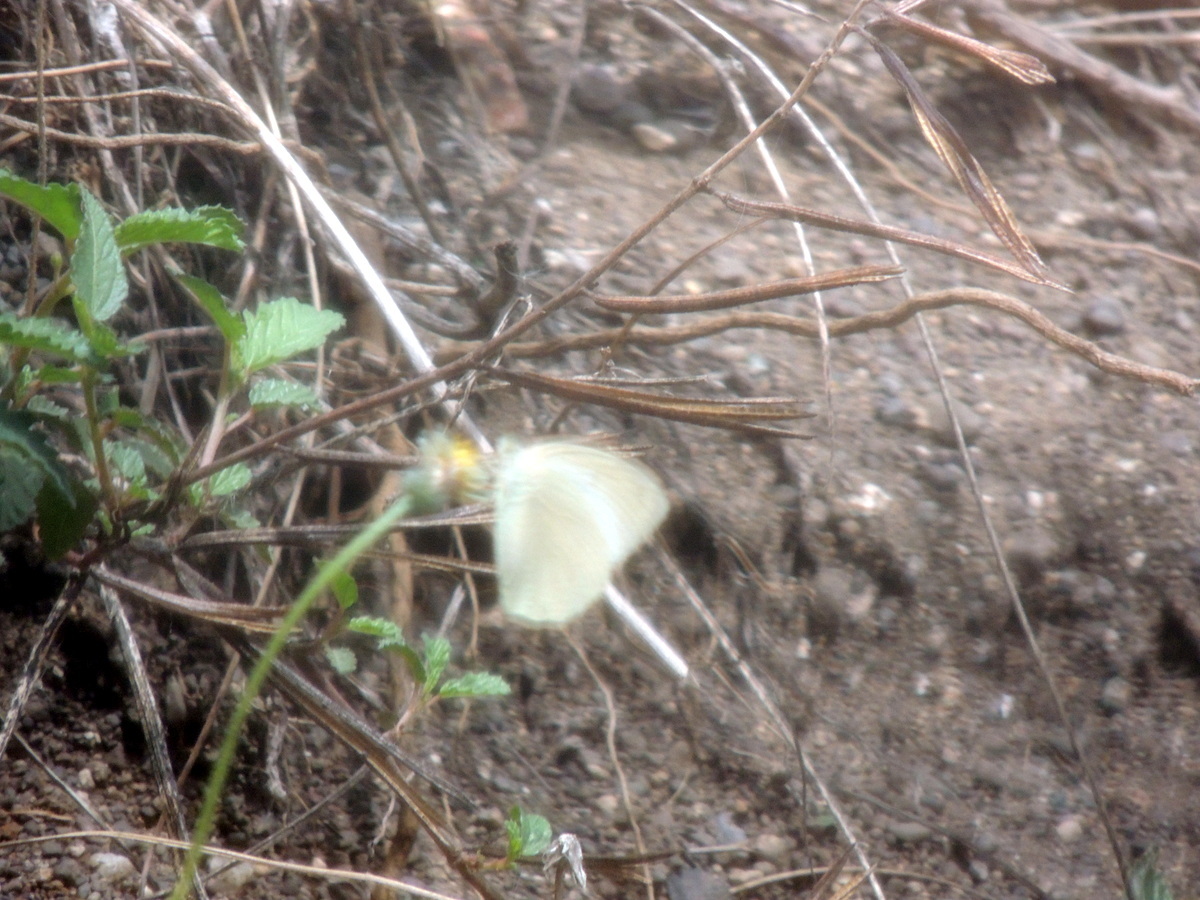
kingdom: Animalia
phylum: Arthropoda
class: Insecta
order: Lepidoptera
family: Pieridae
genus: Catopsilia
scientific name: Catopsilia pyranthe
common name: Mottled emigrant
